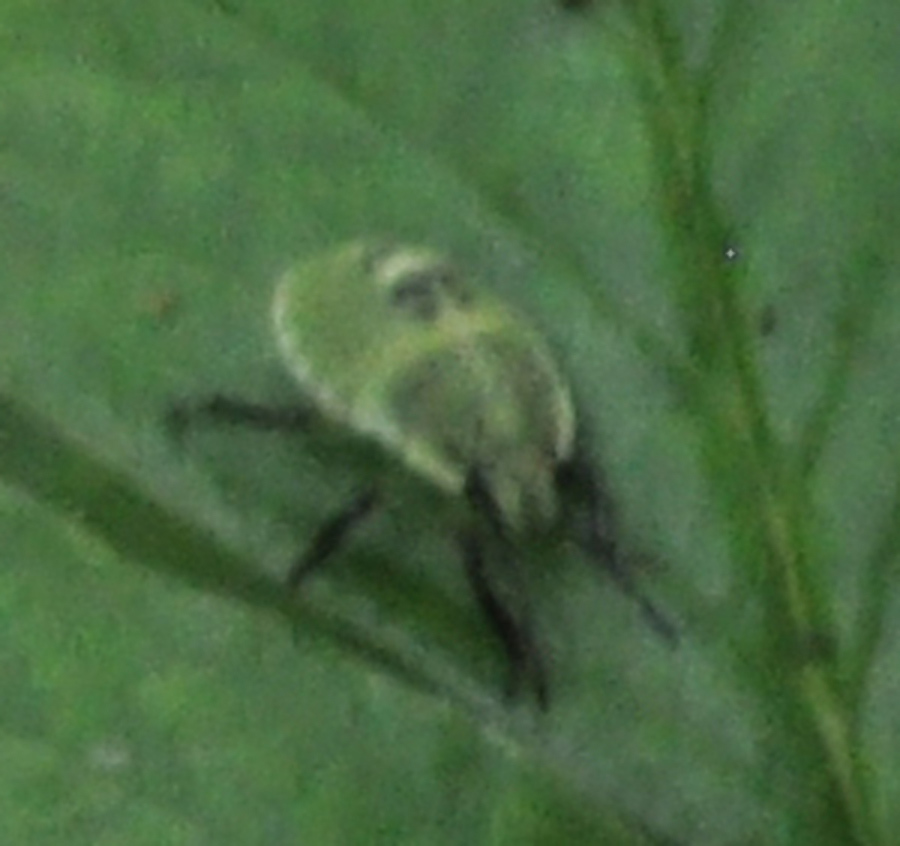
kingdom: Animalia
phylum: Arthropoda
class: Insecta
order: Hemiptera
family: Pentatomidae
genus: Palomena
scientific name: Palomena prasina
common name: Green shieldbug
